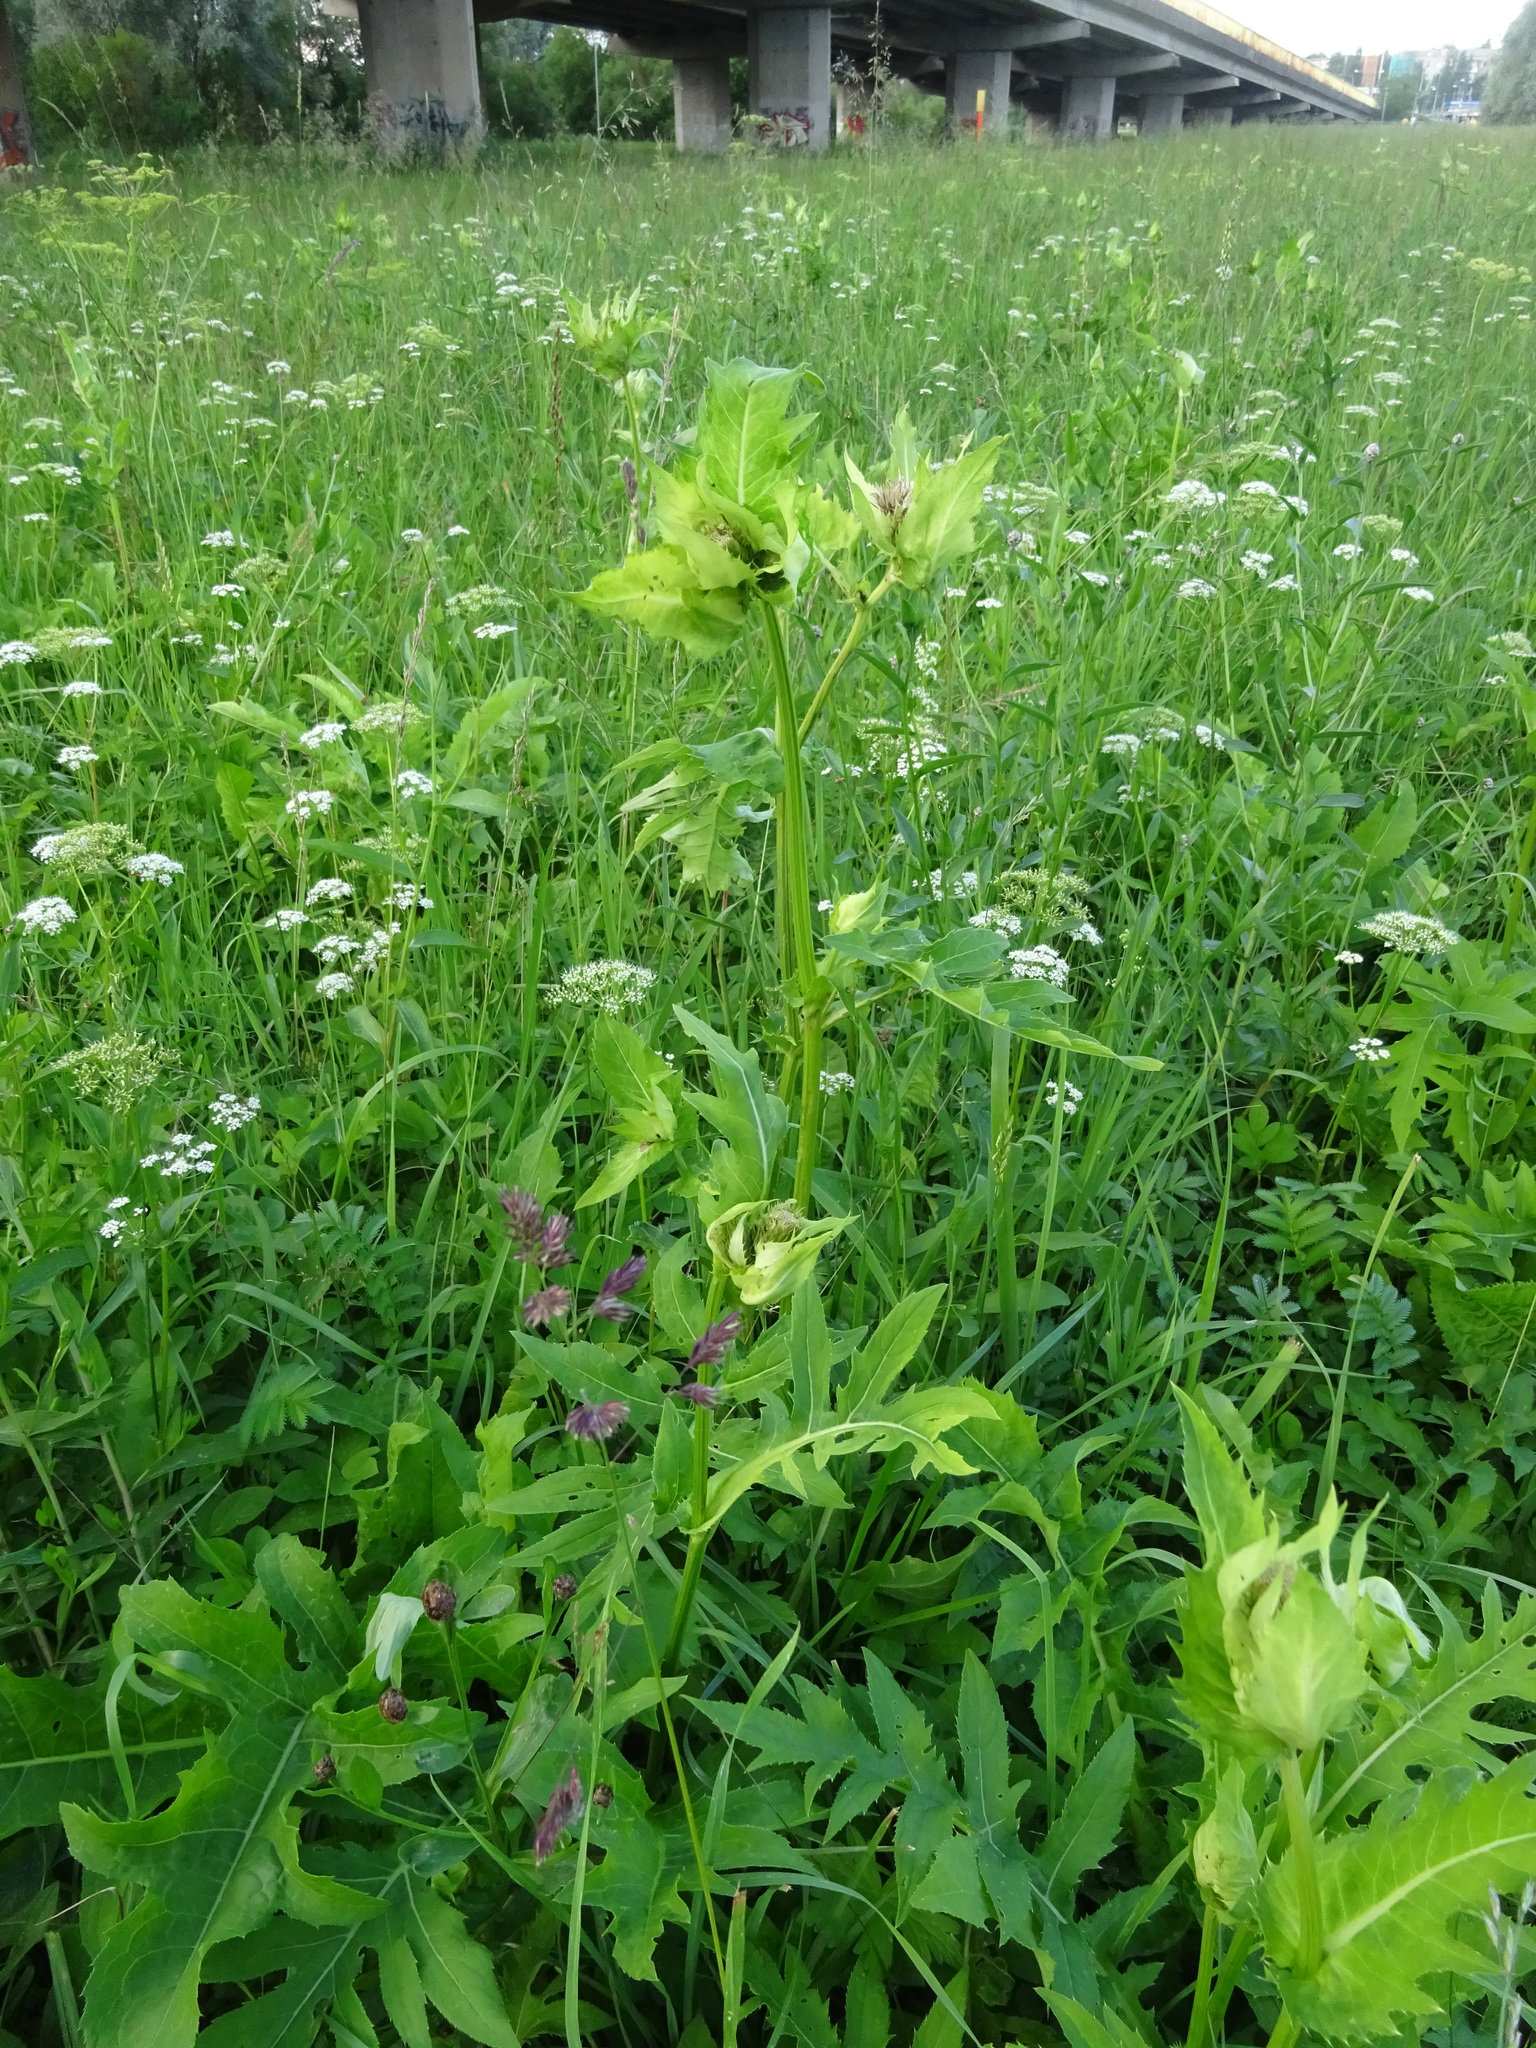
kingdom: Plantae
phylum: Tracheophyta
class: Magnoliopsida
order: Asterales
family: Asteraceae
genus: Cirsium
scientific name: Cirsium oleraceum
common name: Cabbage thistle
